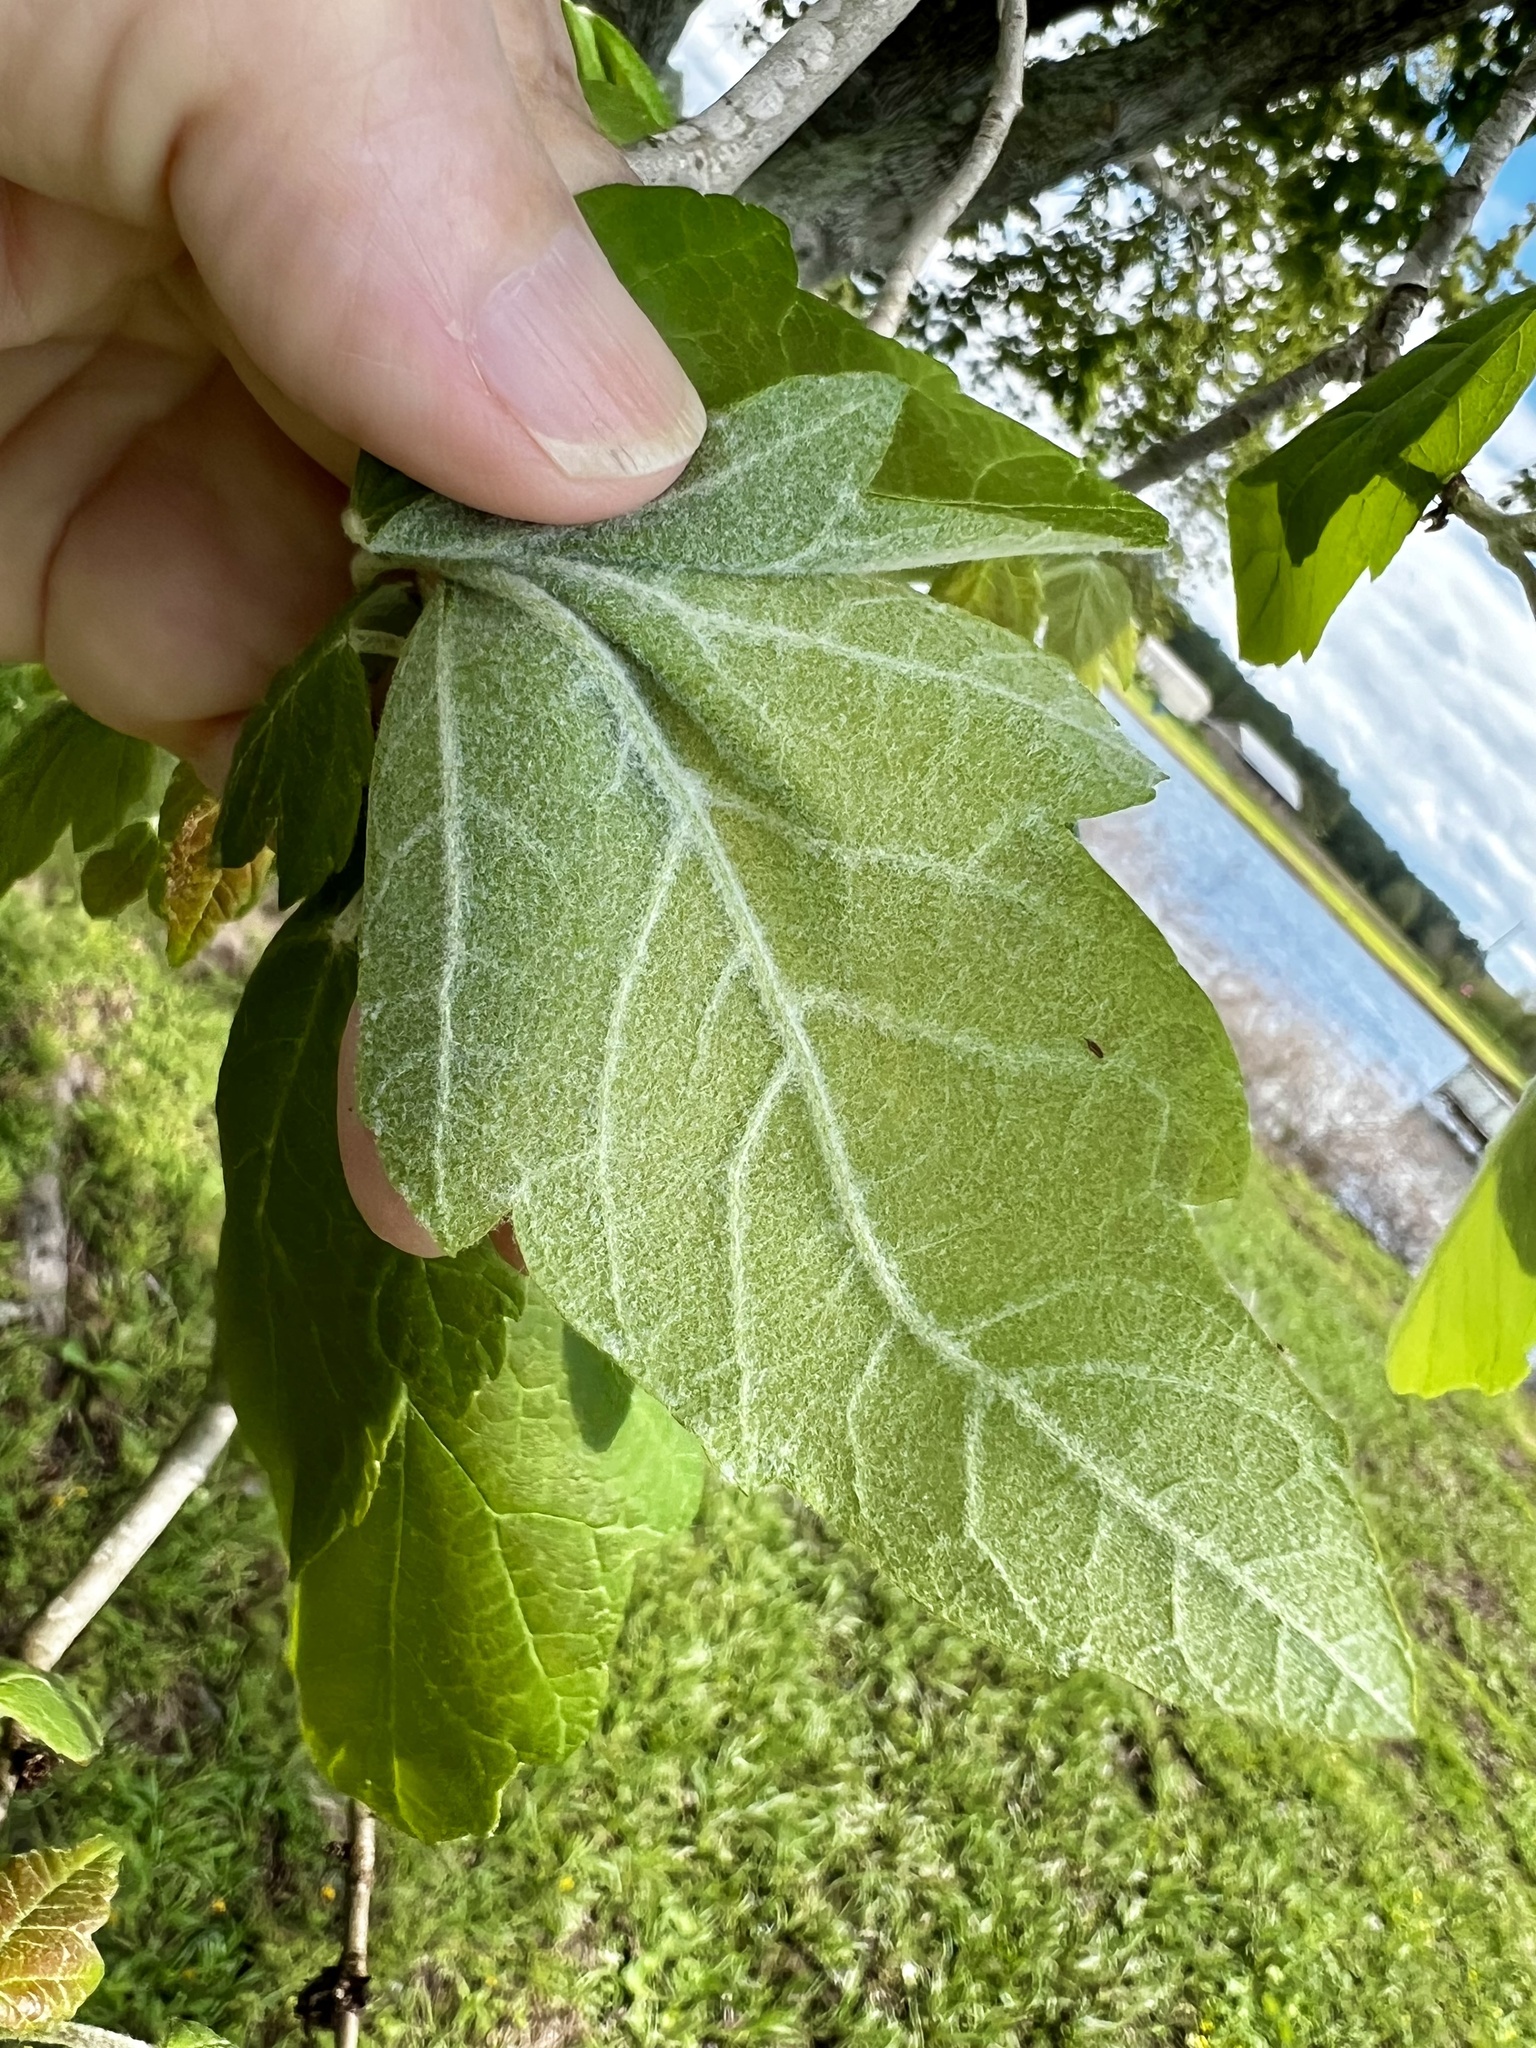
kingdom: Plantae
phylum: Tracheophyta
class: Magnoliopsida
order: Sapindales
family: Sapindaceae
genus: Acer
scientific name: Acer negundo
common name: Ashleaf maple
